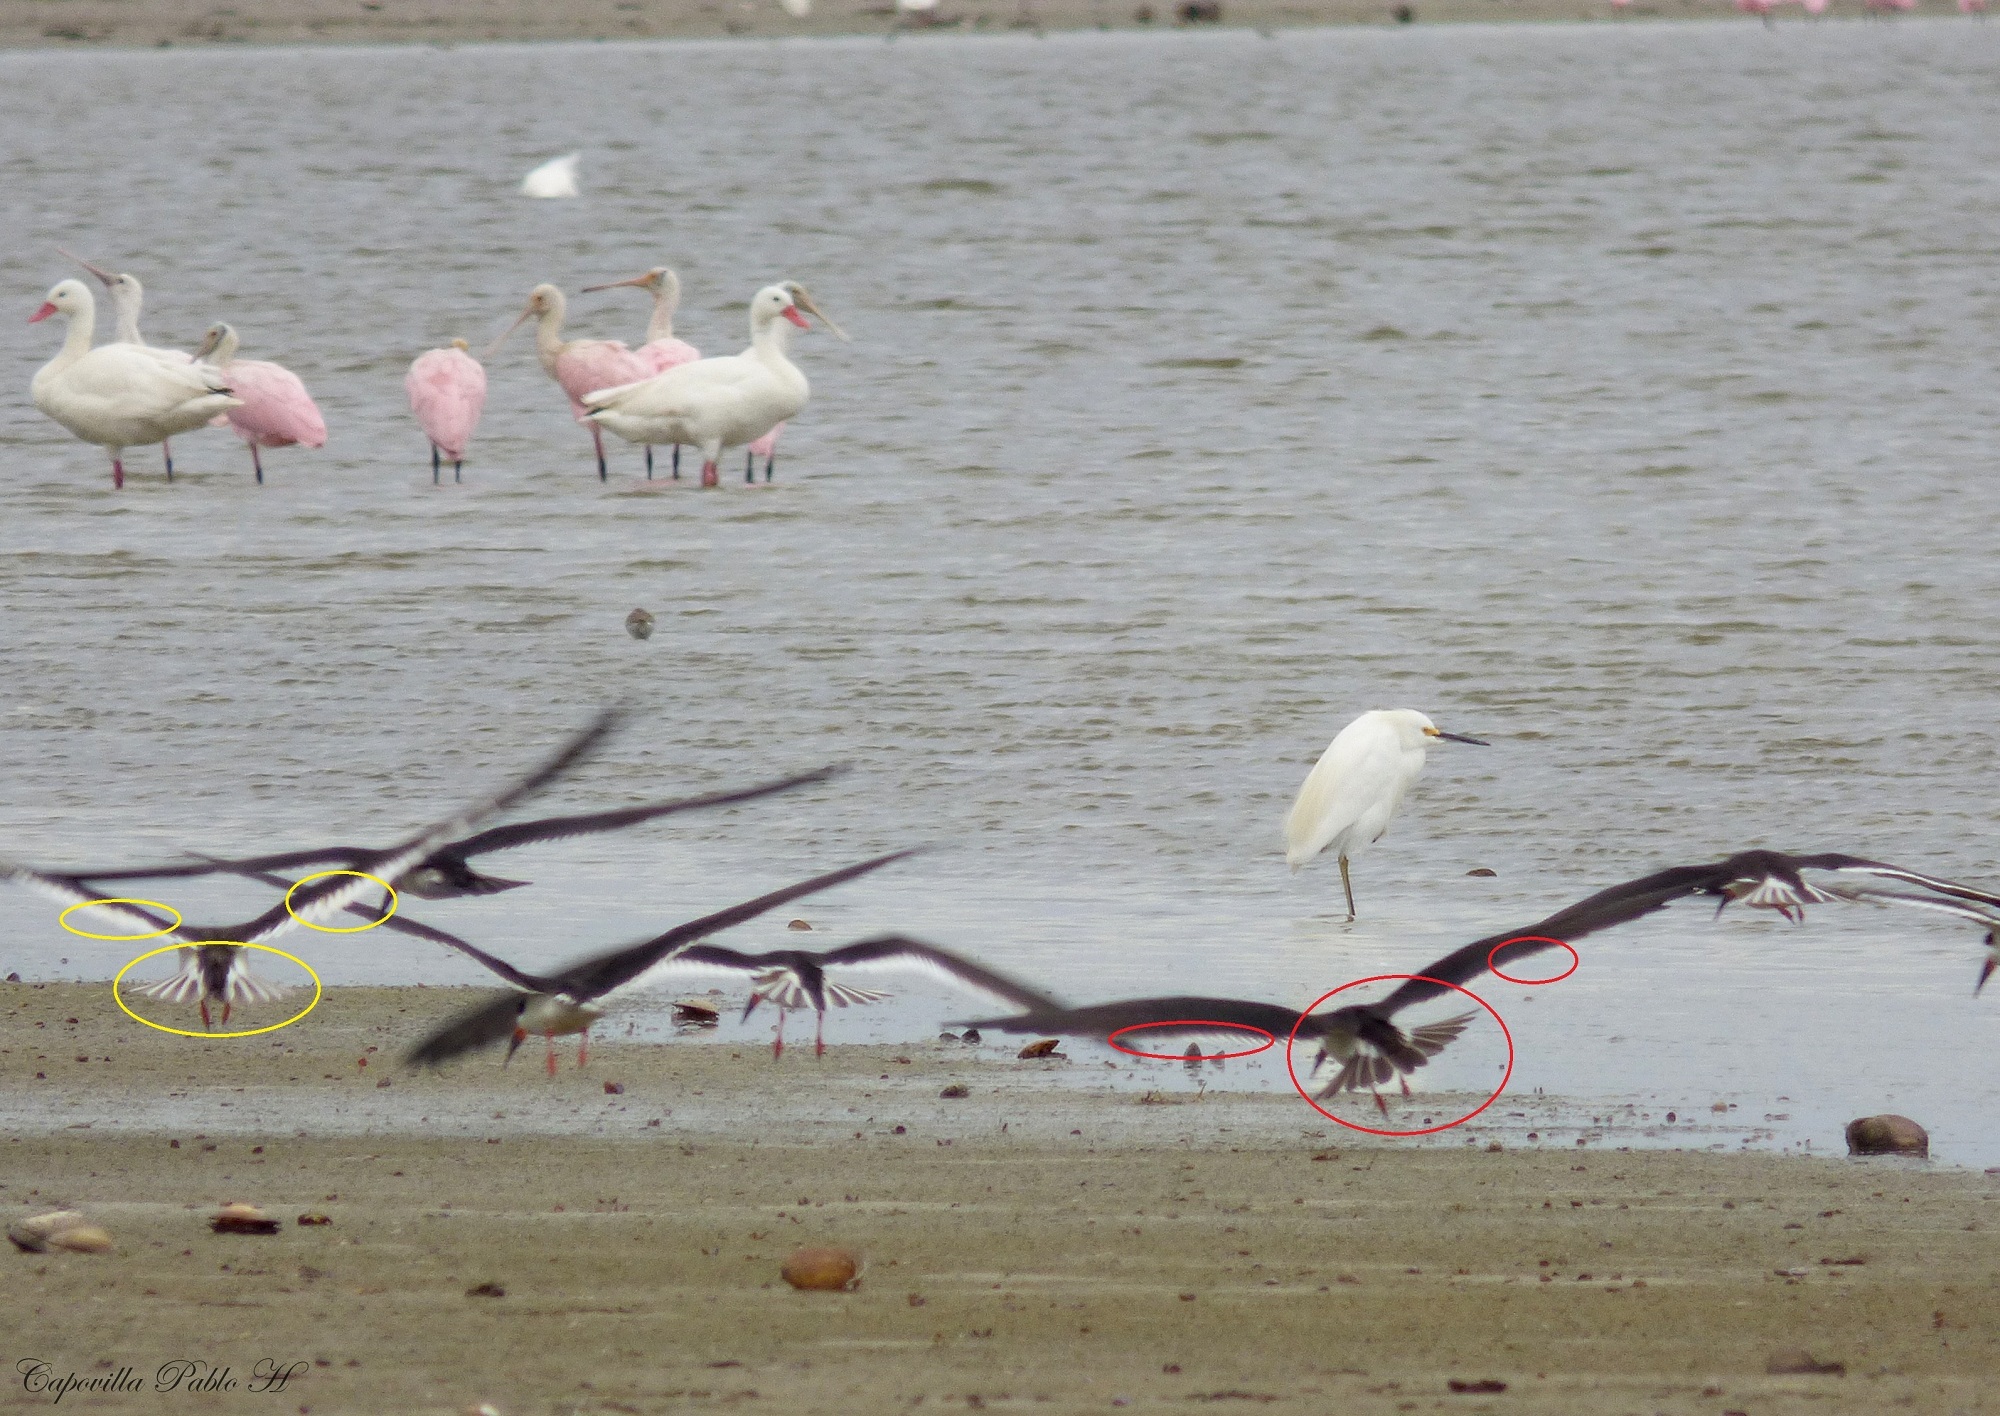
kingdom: Animalia
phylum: Chordata
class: Aves
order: Charadriiformes
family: Laridae
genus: Rynchops
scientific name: Rynchops niger
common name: Black skimmer
